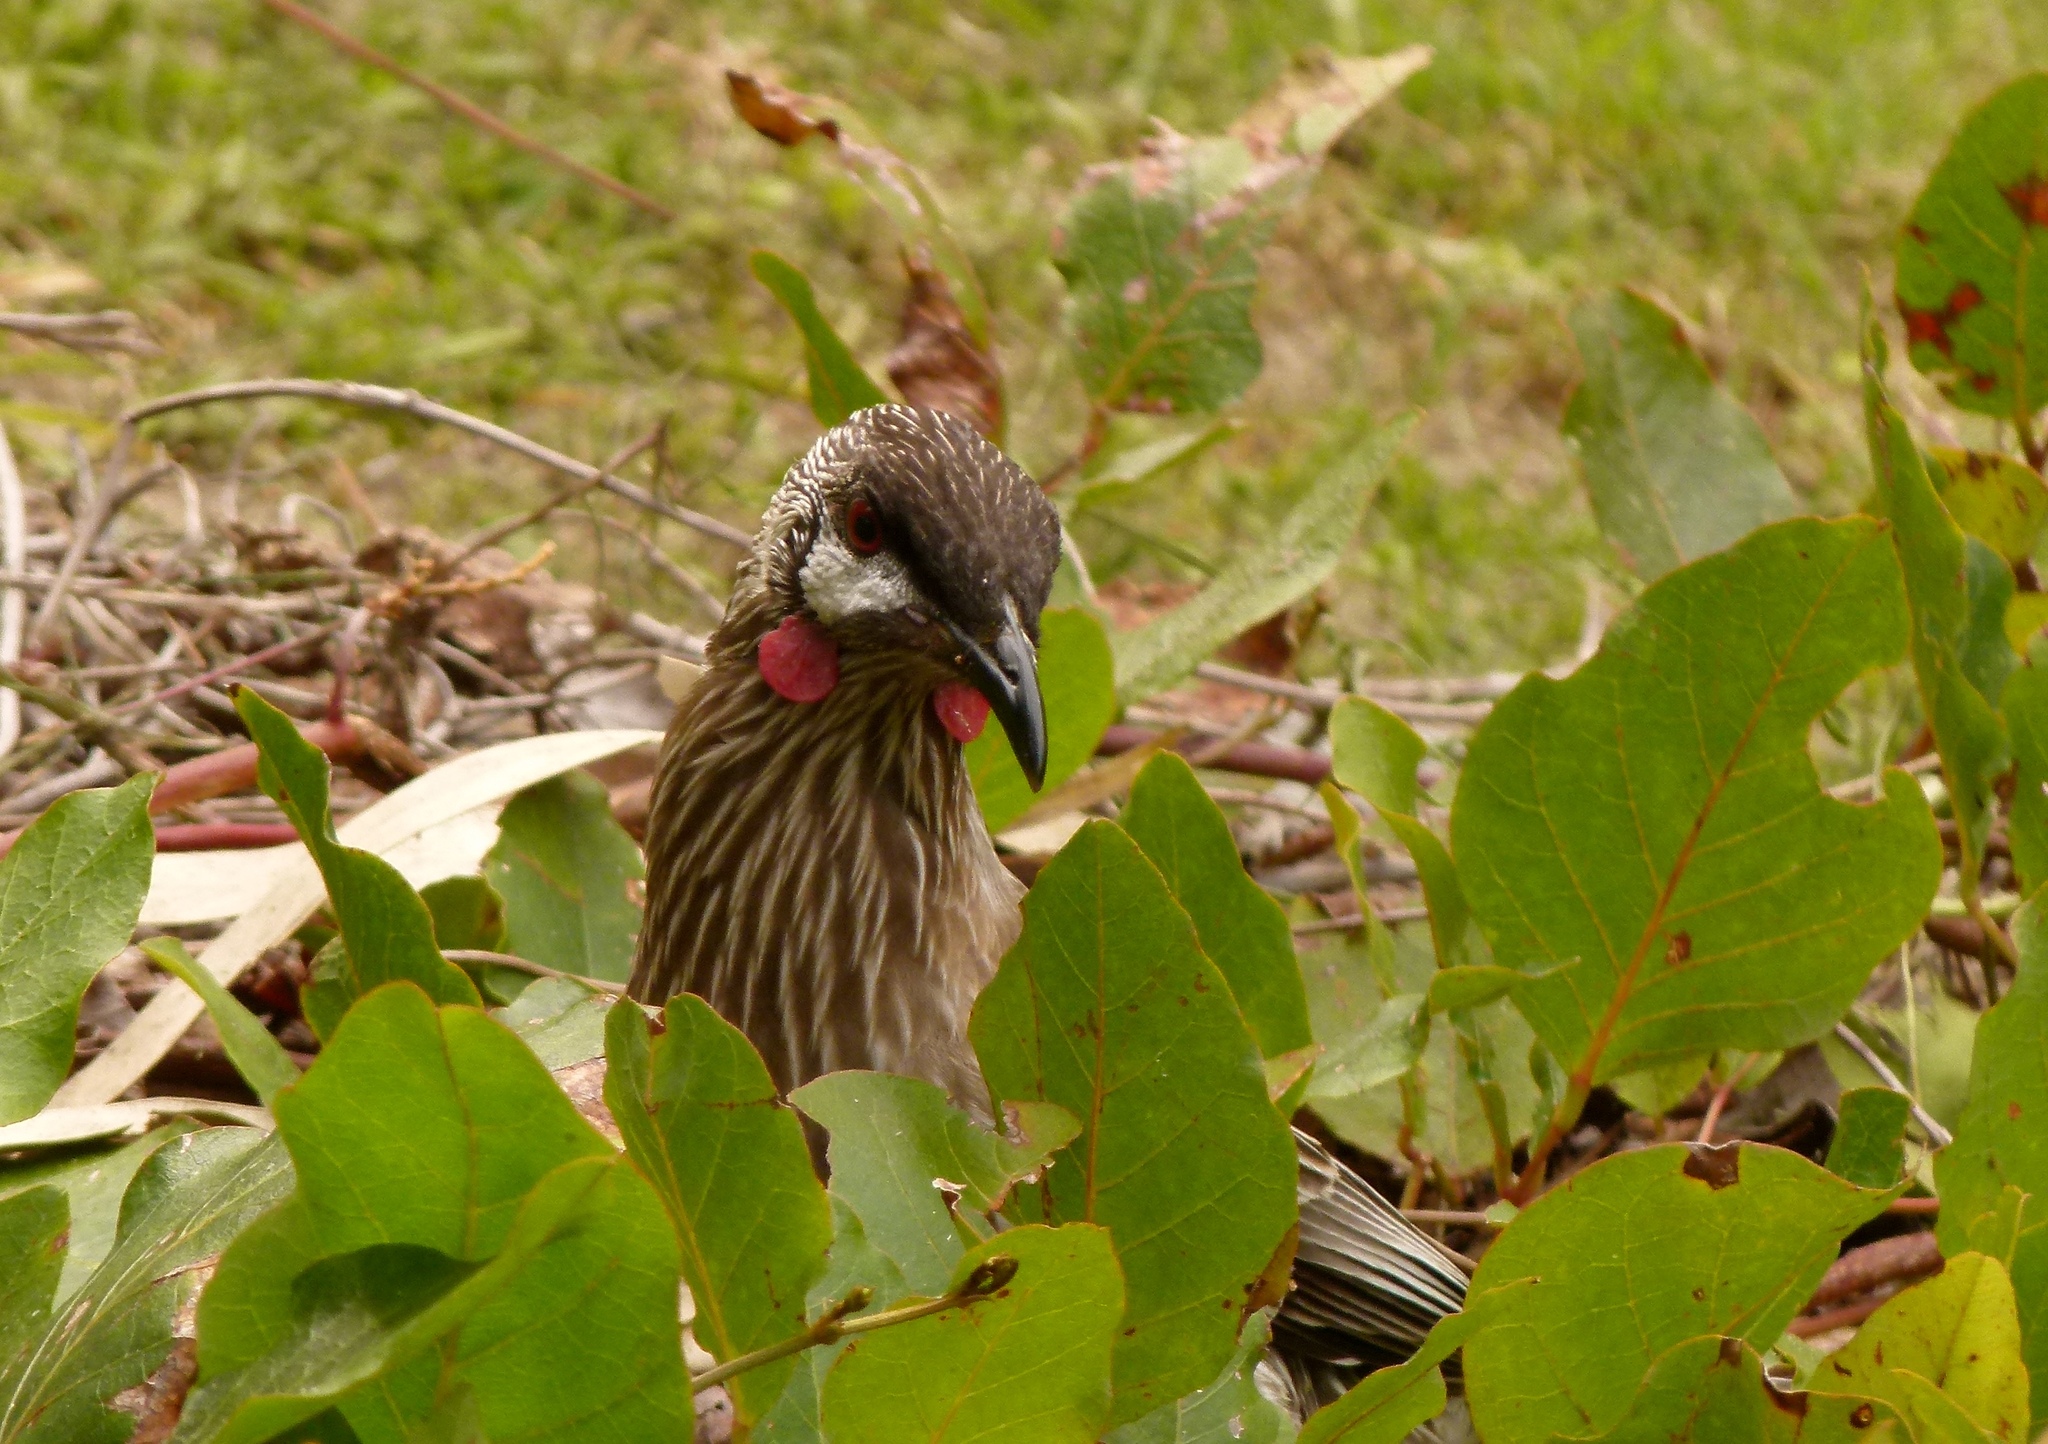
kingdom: Animalia
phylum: Chordata
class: Aves
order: Passeriformes
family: Meliphagidae
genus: Anthochaera
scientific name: Anthochaera carunculata
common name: Red wattlebird
